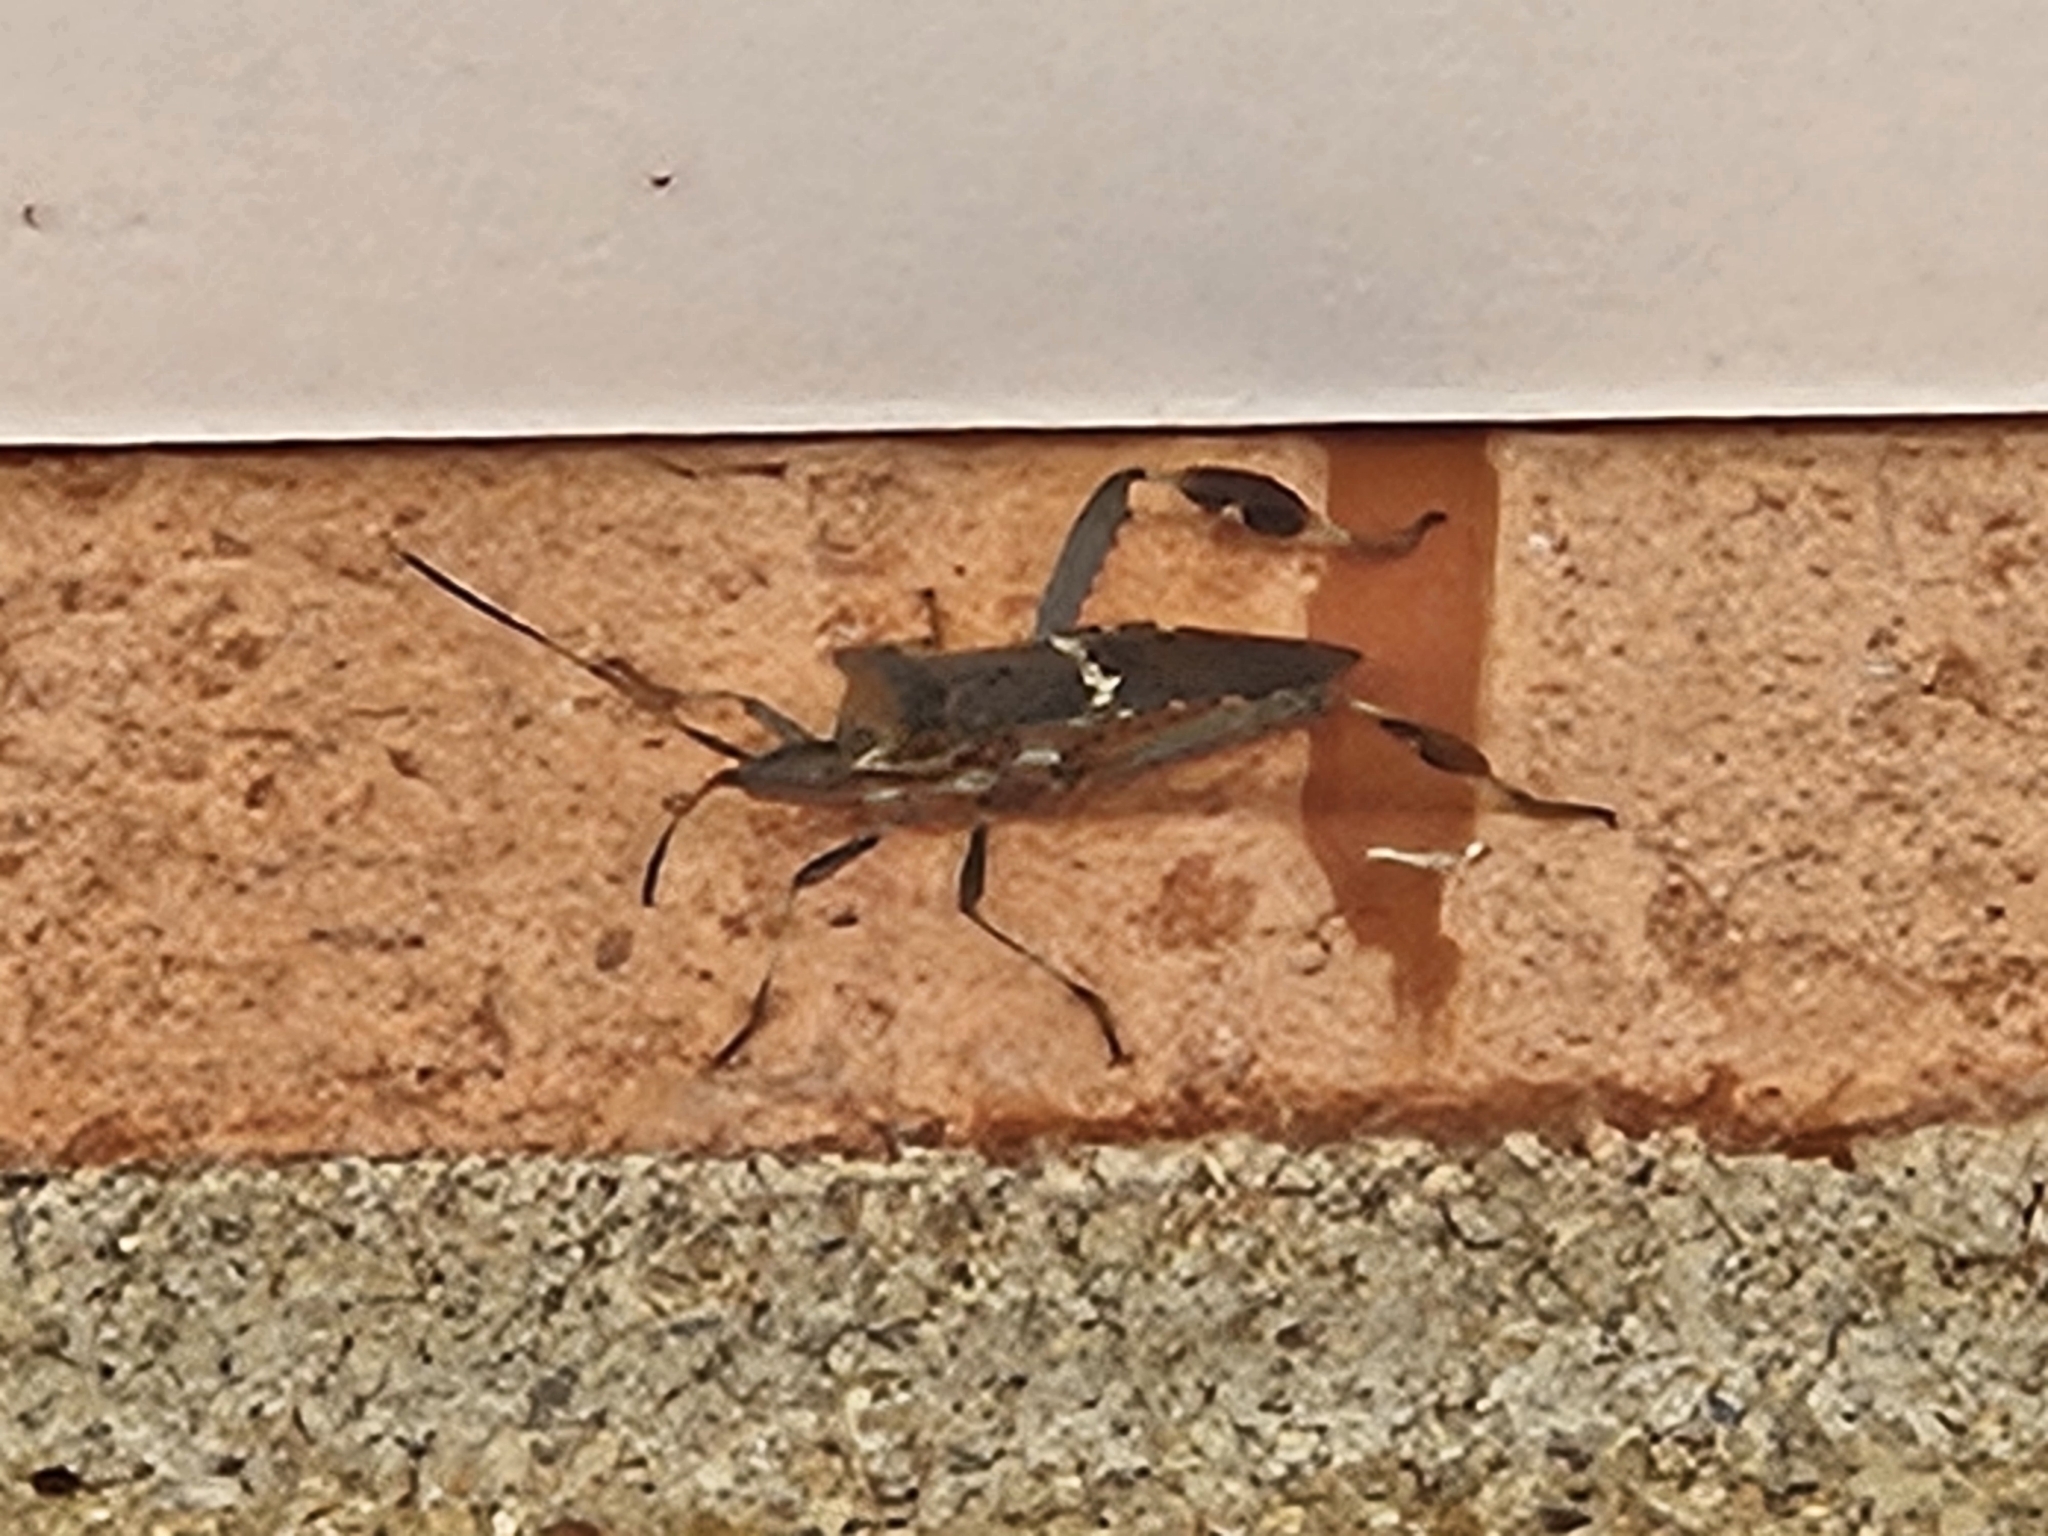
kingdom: Animalia
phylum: Arthropoda
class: Insecta
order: Hemiptera
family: Coreidae
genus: Leptoglossus
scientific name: Leptoglossus clypealis
